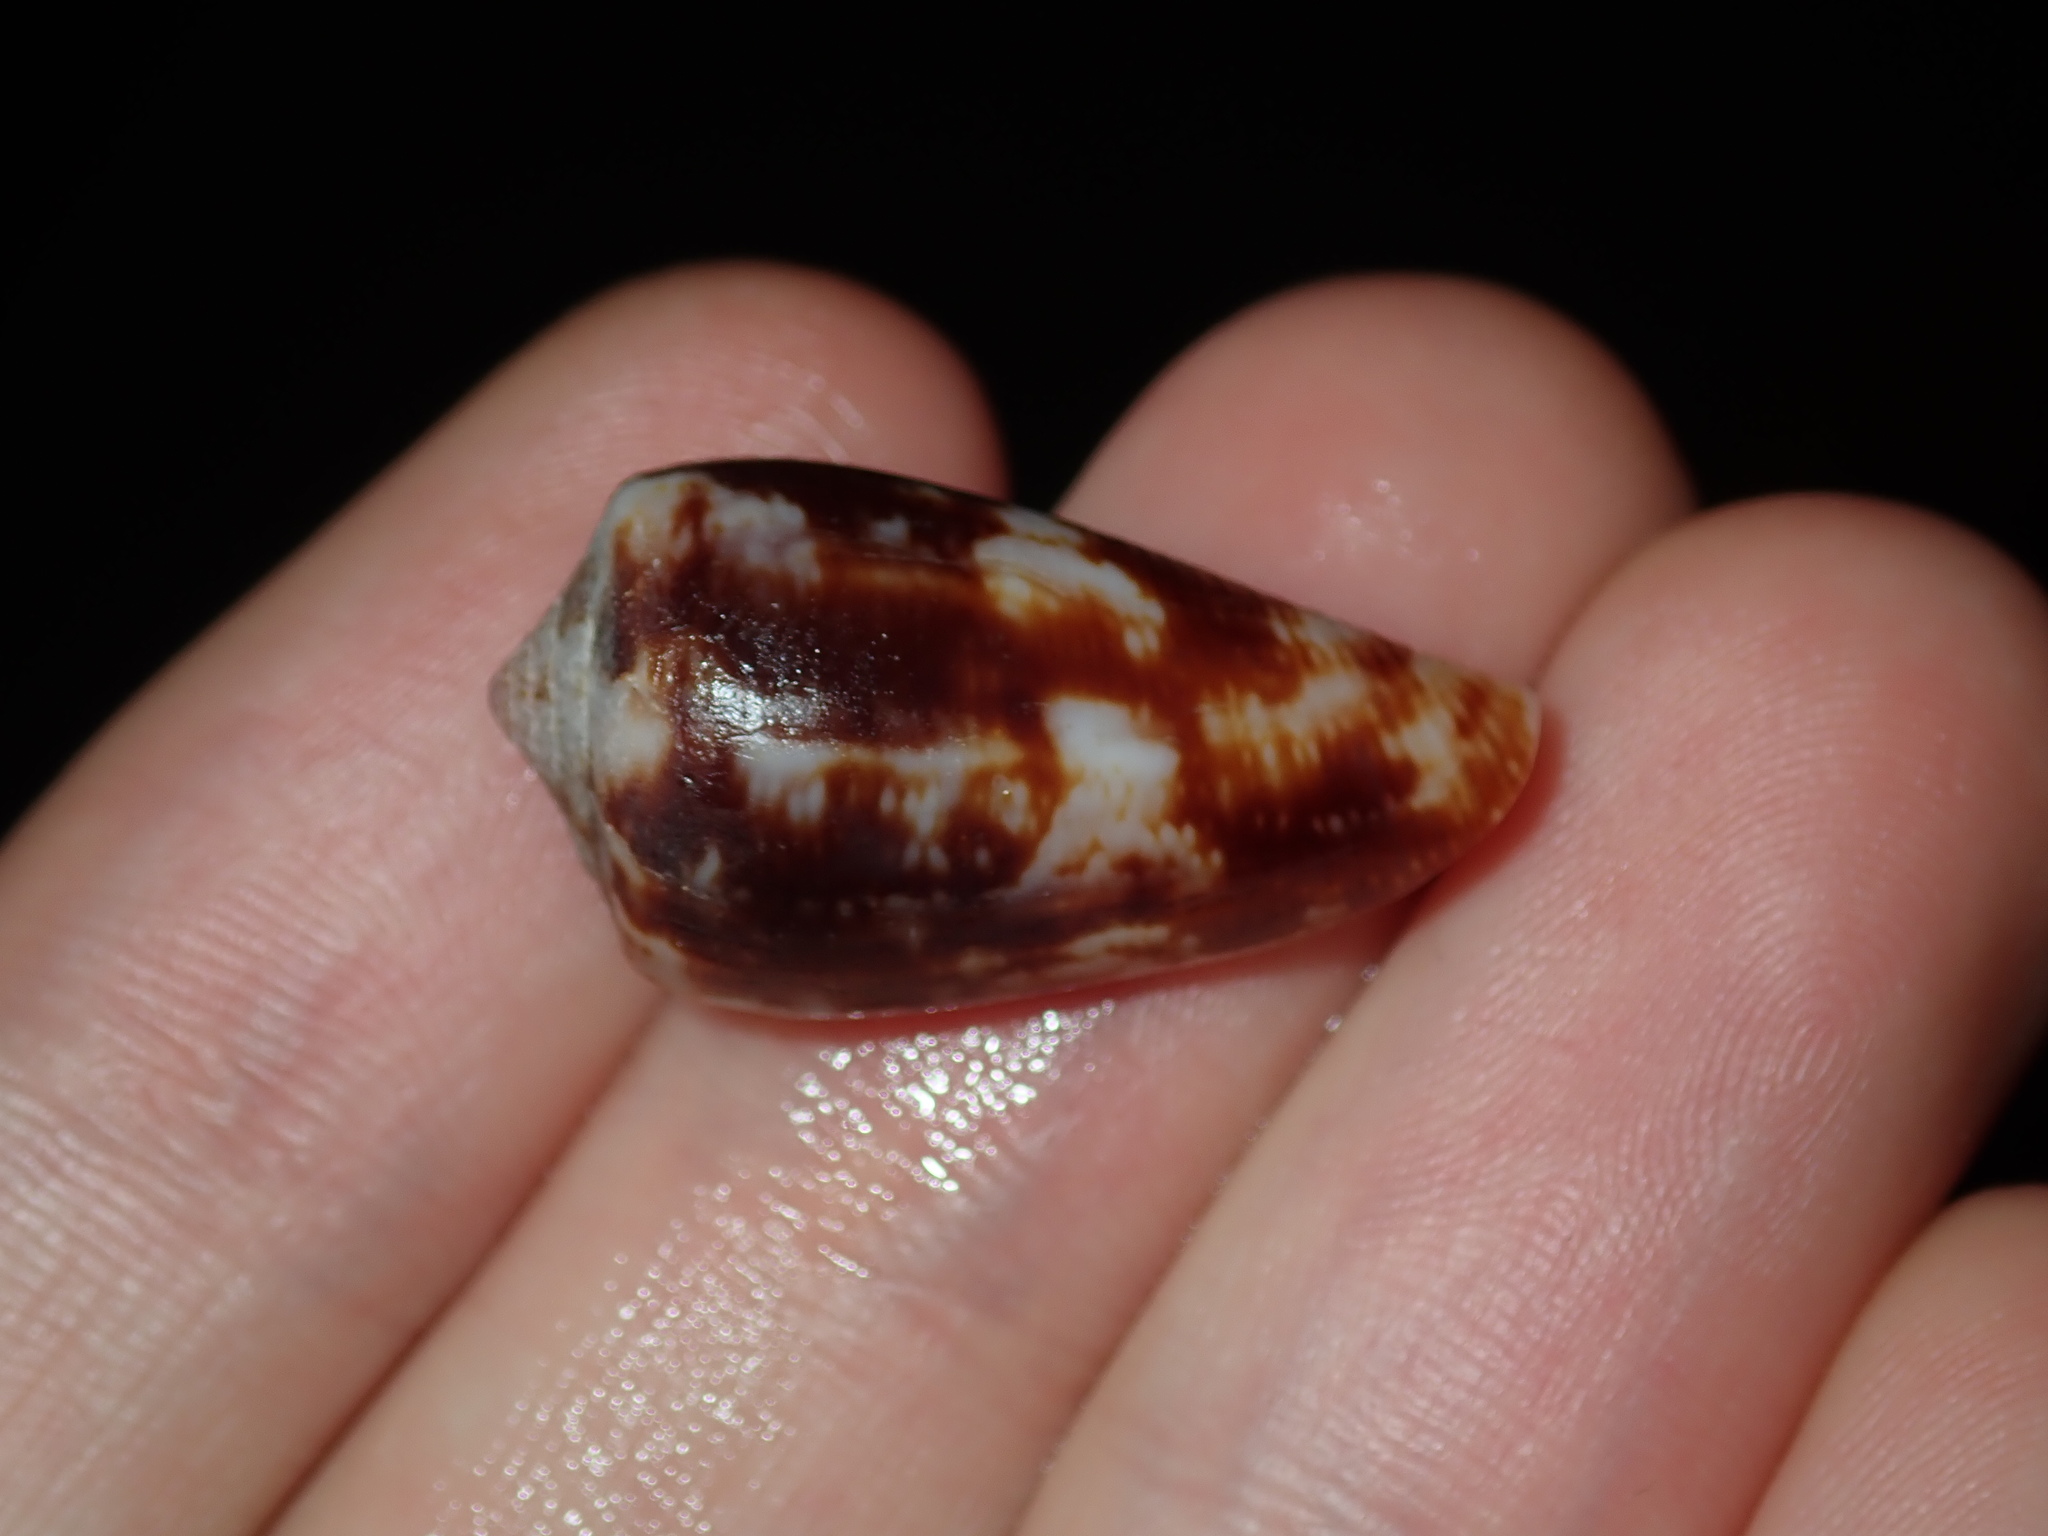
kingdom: Animalia
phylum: Mollusca
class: Gastropoda
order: Neogastropoda
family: Conidae
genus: Conus
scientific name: Conus anemone
